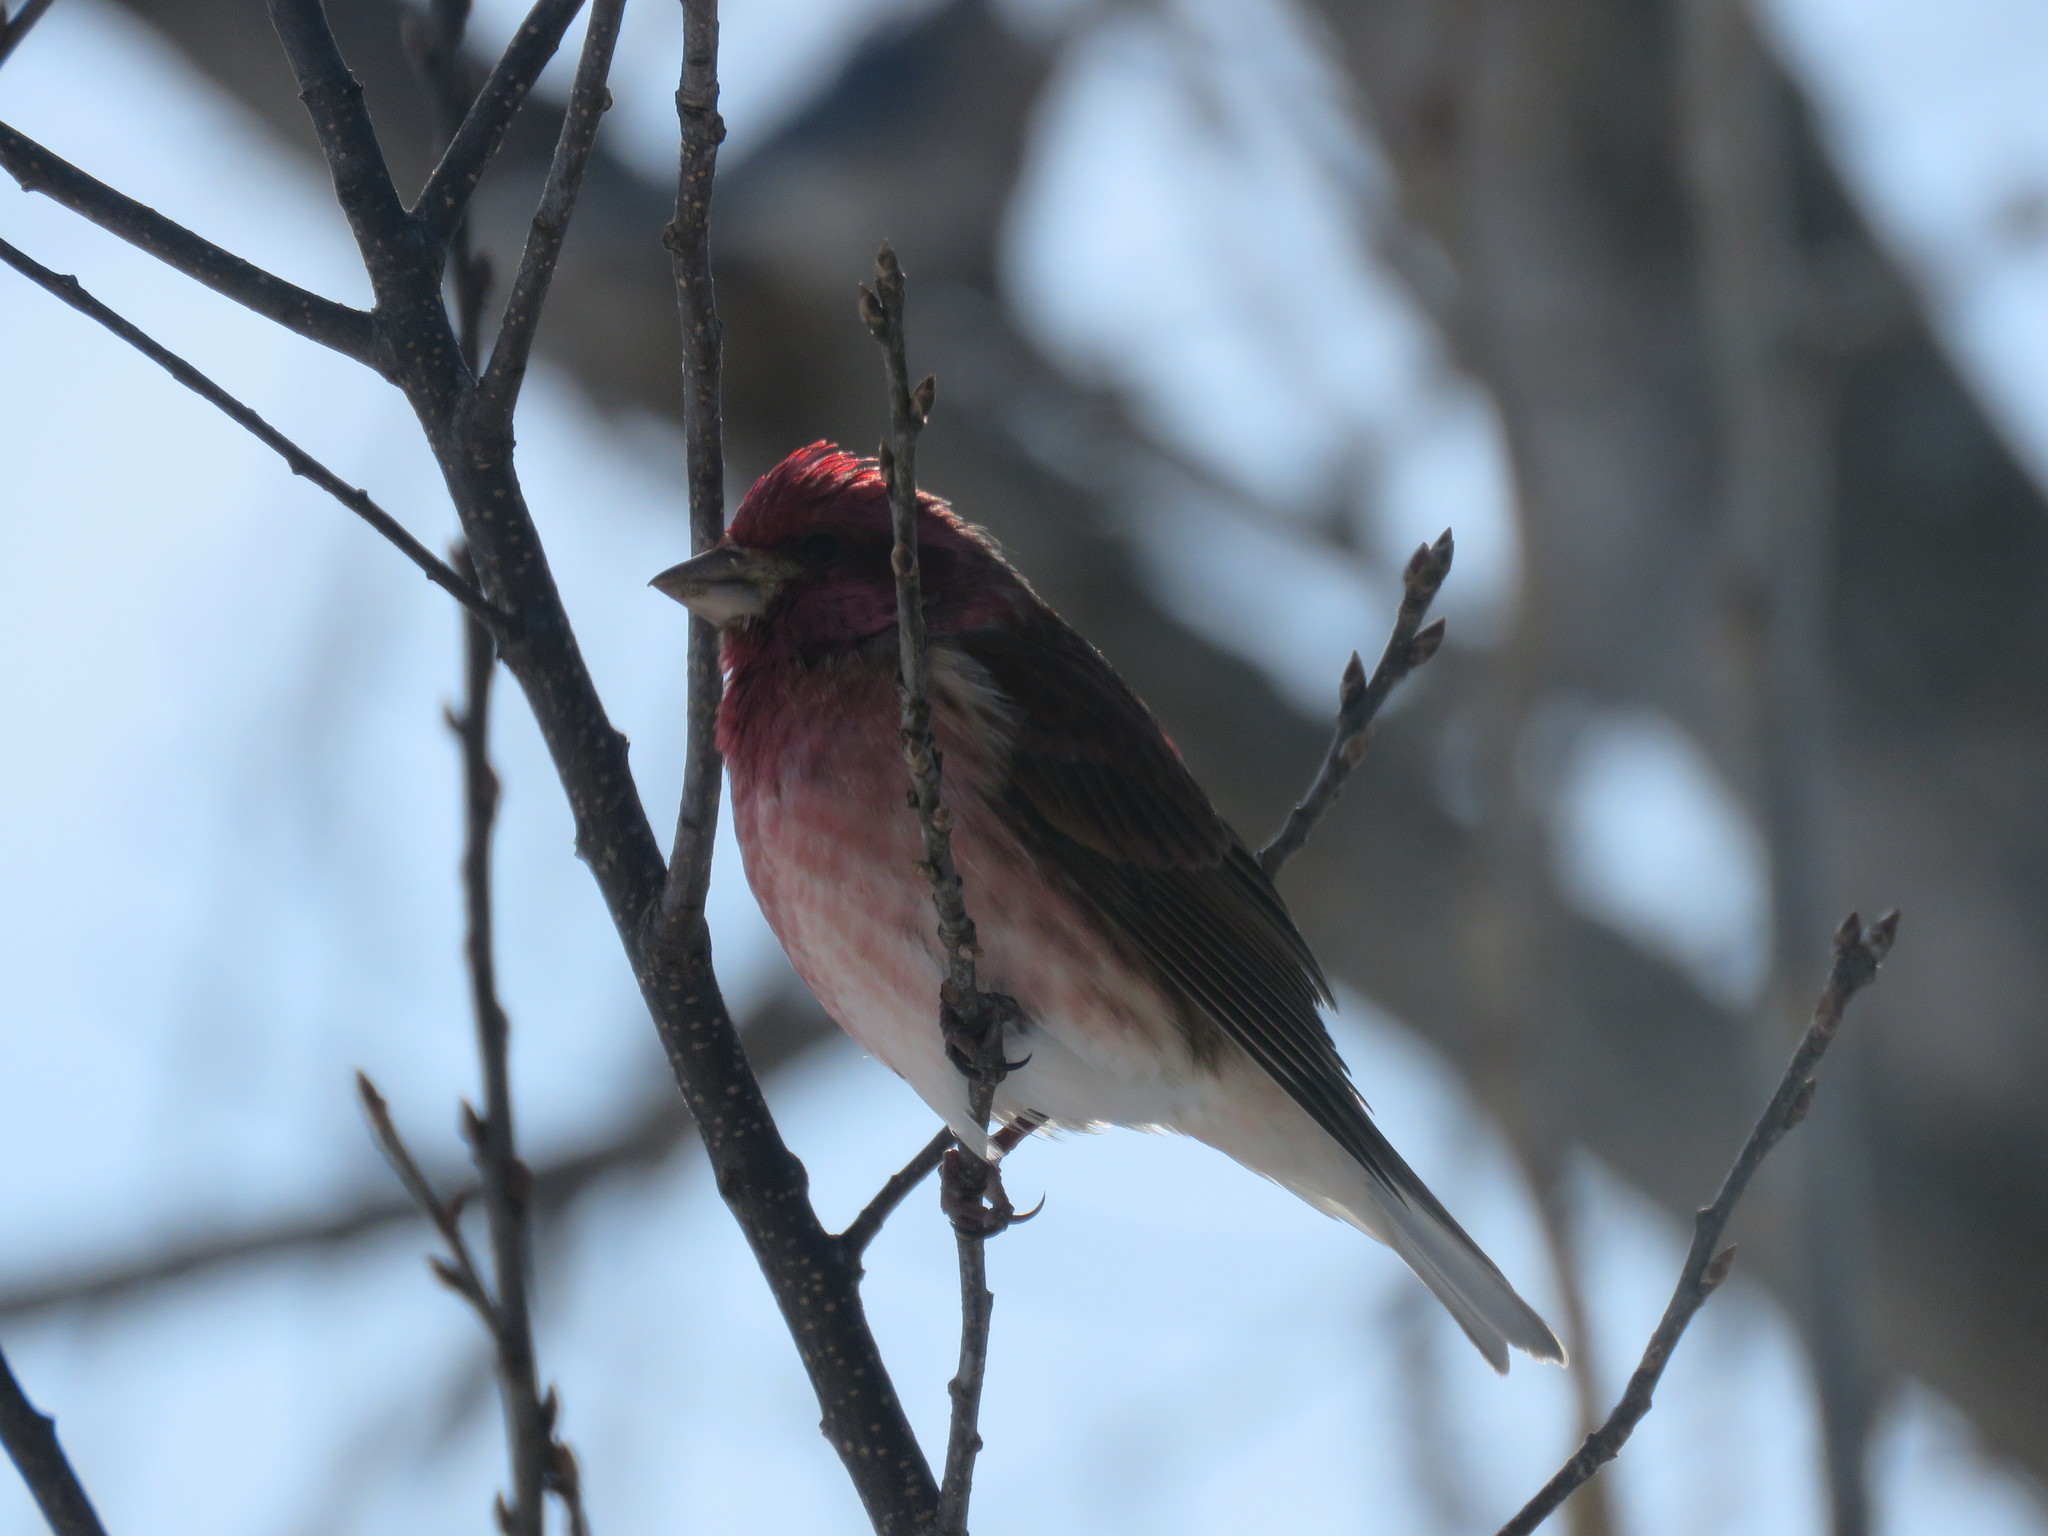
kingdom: Animalia
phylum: Chordata
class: Aves
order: Passeriformes
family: Fringillidae
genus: Haemorhous
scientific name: Haemorhous purpureus
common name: Purple finch
